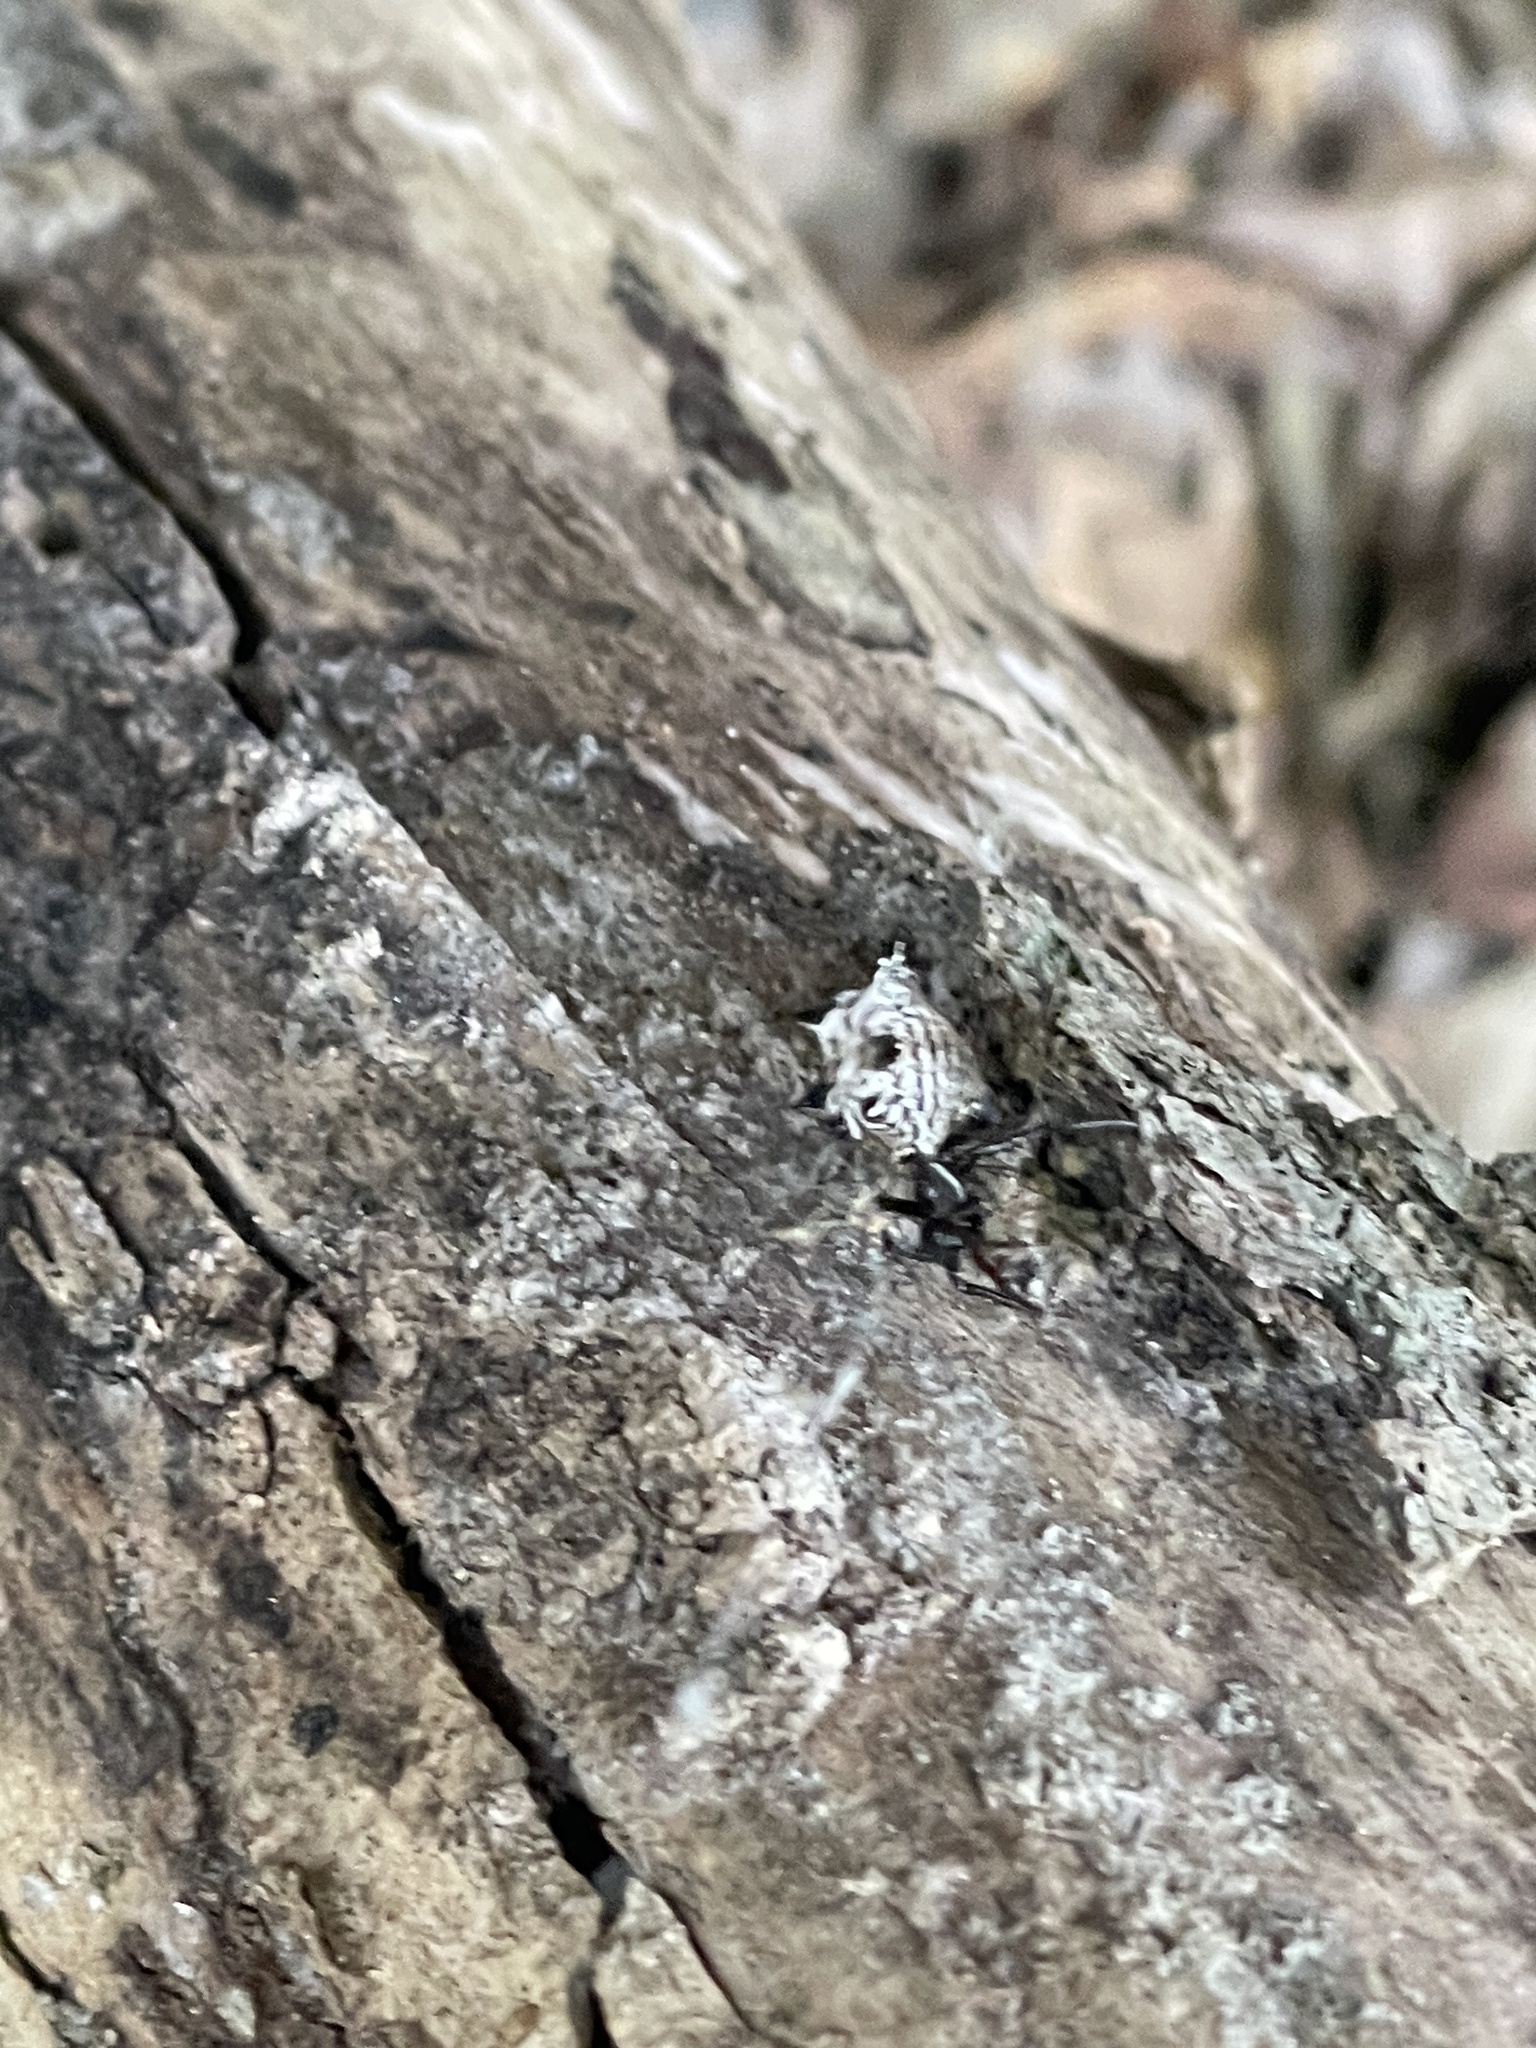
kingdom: Animalia
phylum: Arthropoda
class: Arachnida
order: Araneae
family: Araneidae
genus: Micrathena
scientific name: Micrathena gracilis
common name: Orb weavers
